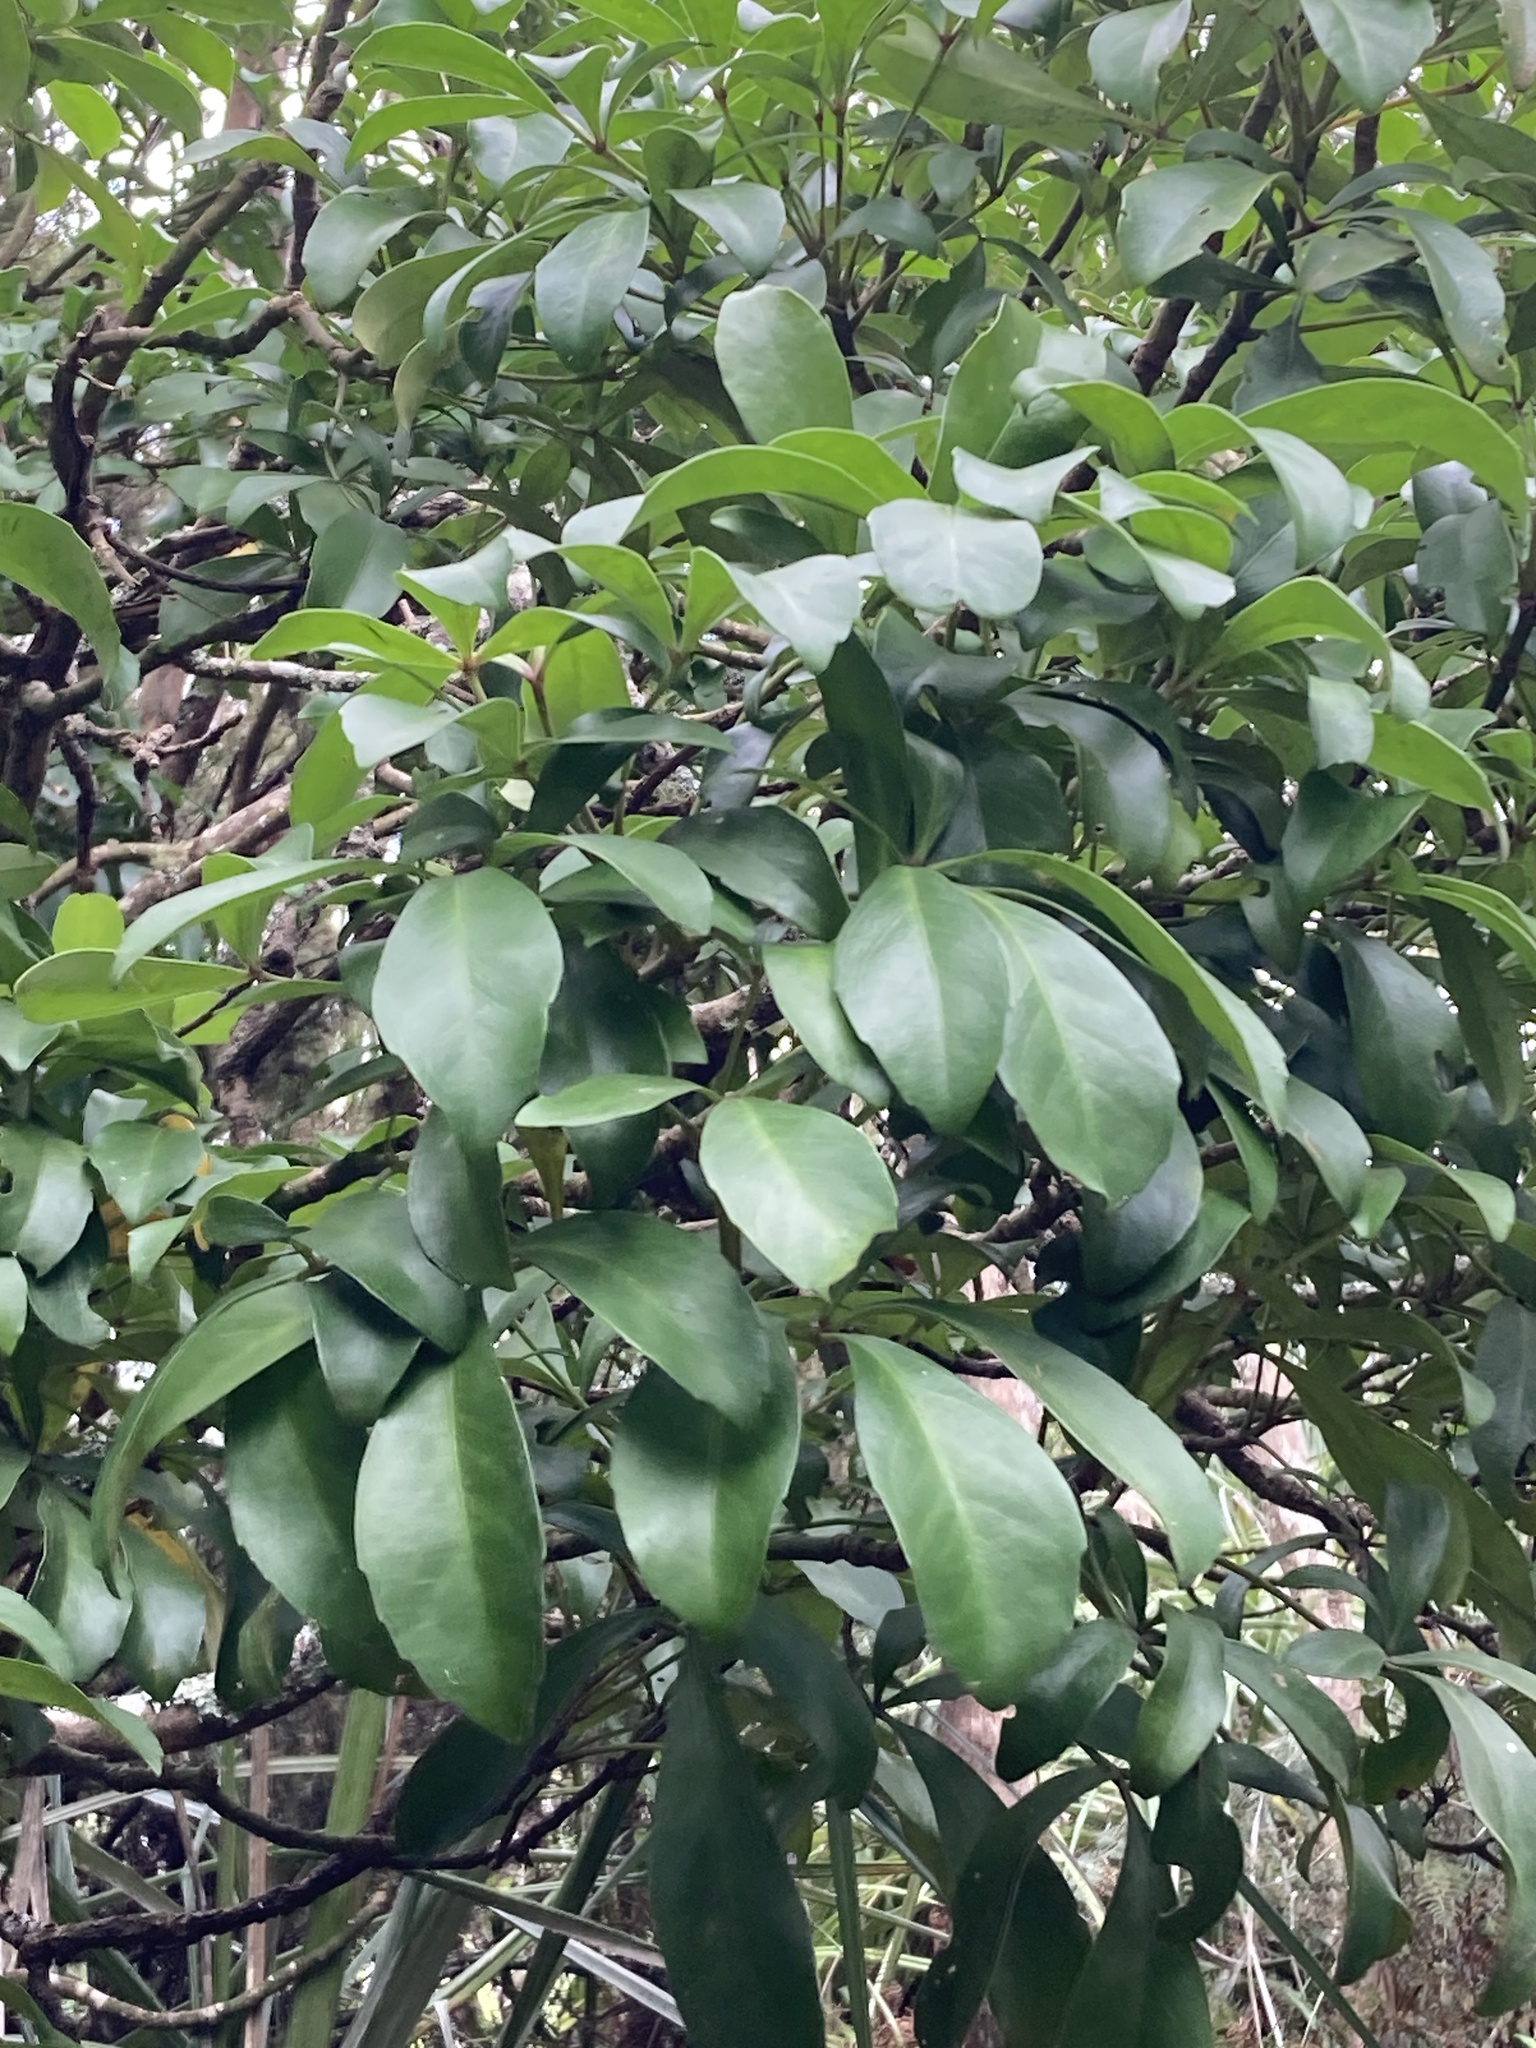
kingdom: Plantae
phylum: Tracheophyta
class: Magnoliopsida
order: Apiales
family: Araliaceae
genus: Pseudopanax
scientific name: Pseudopanax lessonii
